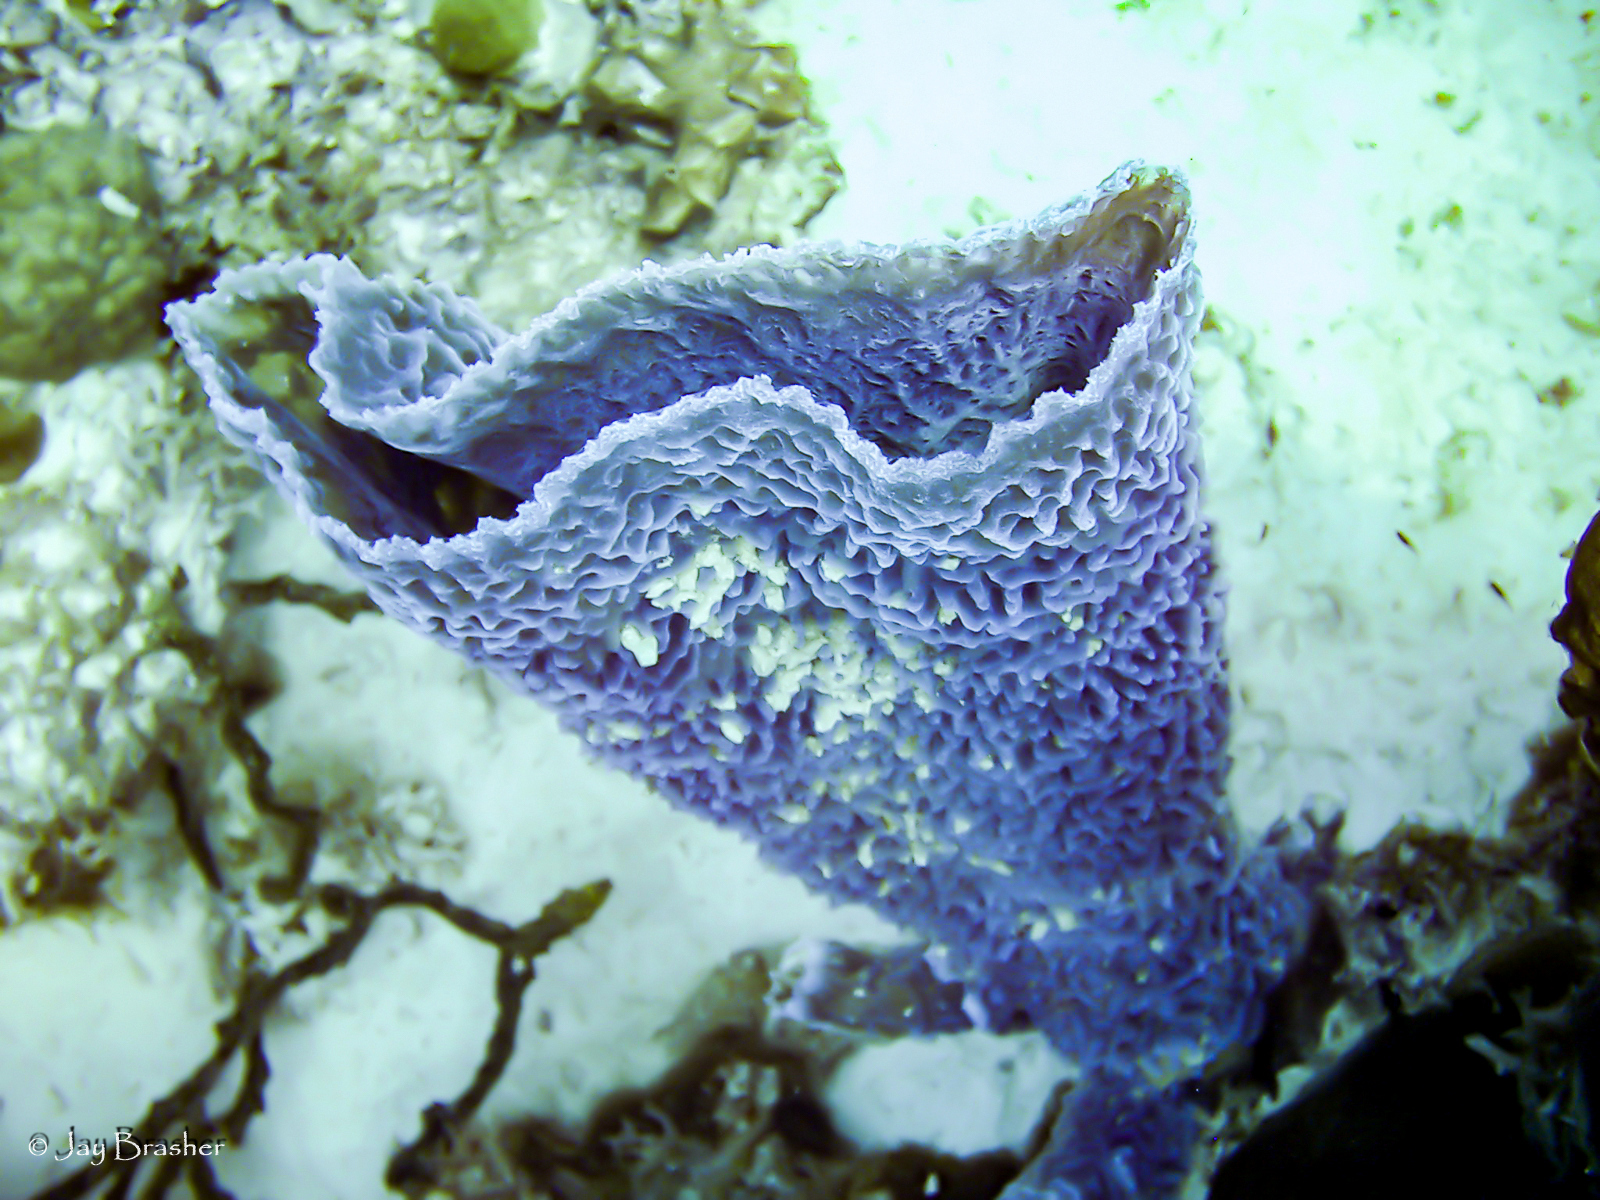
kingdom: Animalia
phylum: Porifera
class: Demospongiae
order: Haplosclerida
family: Callyspongiidae
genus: Callyspongia
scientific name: Callyspongia plicifera
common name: Azure vase sponge
